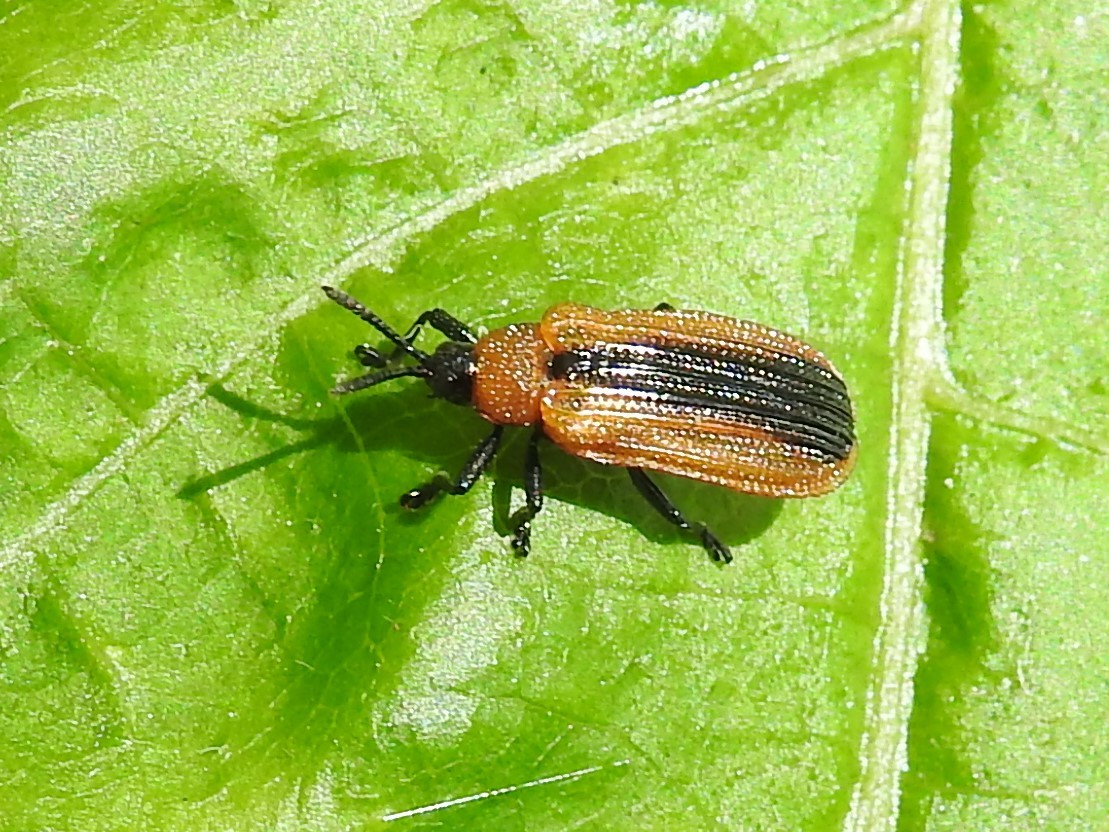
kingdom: Animalia
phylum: Arthropoda
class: Insecta
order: Coleoptera
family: Chrysomelidae
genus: Odontota
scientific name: Odontota dorsalis
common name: Locust leaf-miner beetle
